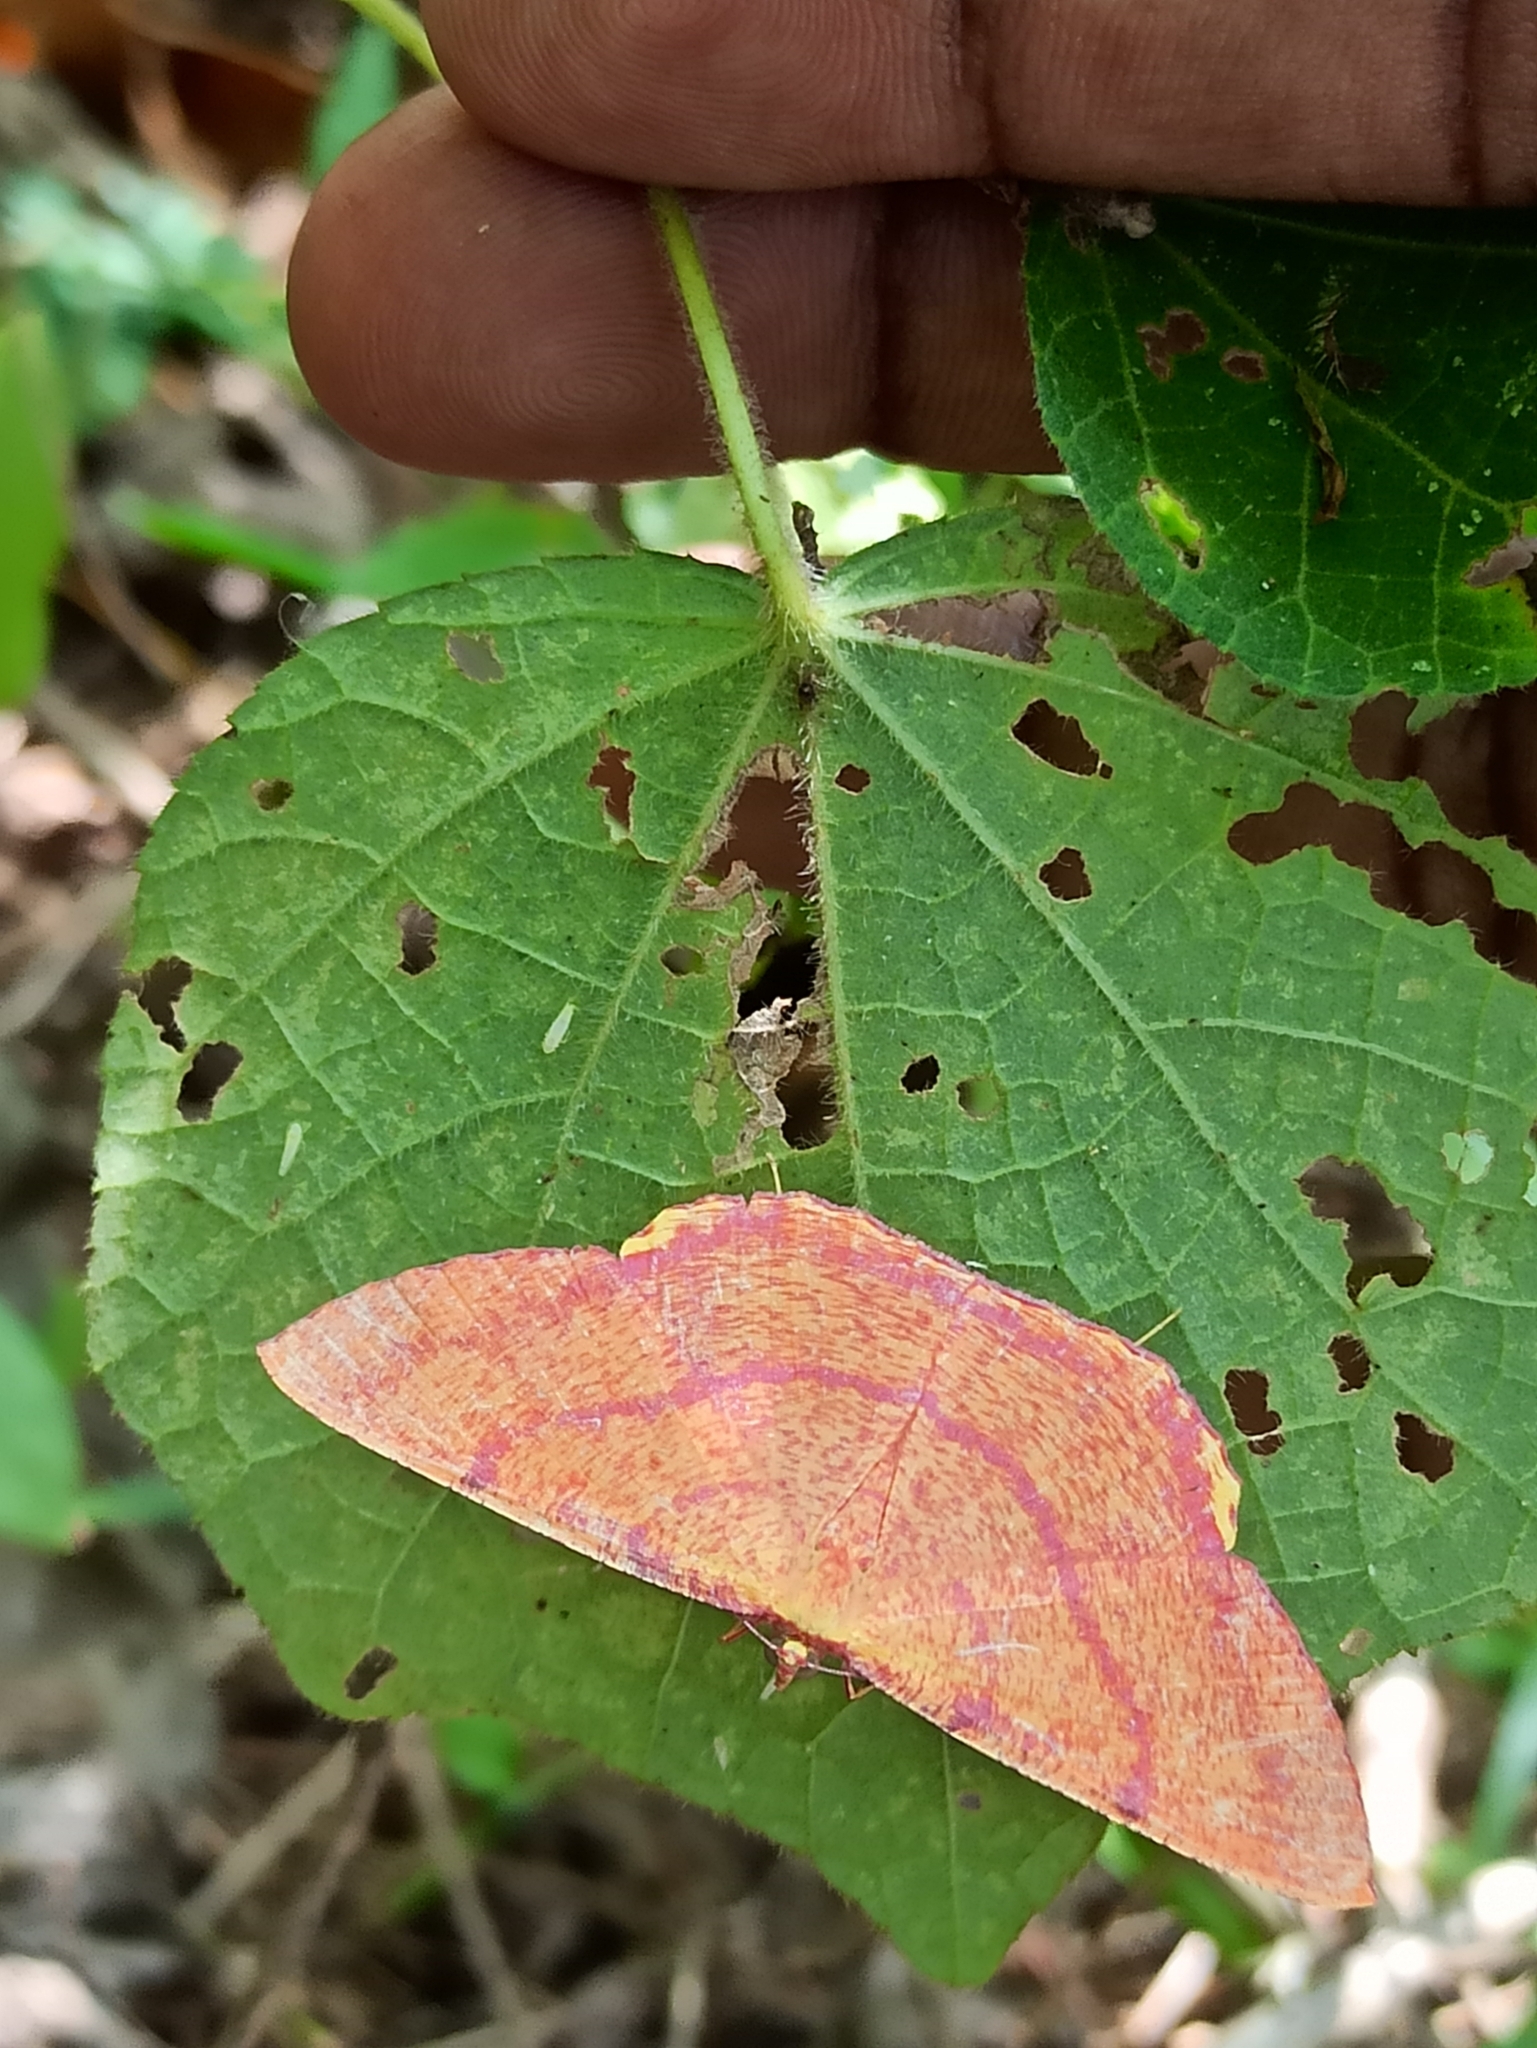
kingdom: Animalia
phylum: Arthropoda
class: Insecta
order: Lepidoptera
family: Geometridae
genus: Eumelea
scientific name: Eumelea rosalia
